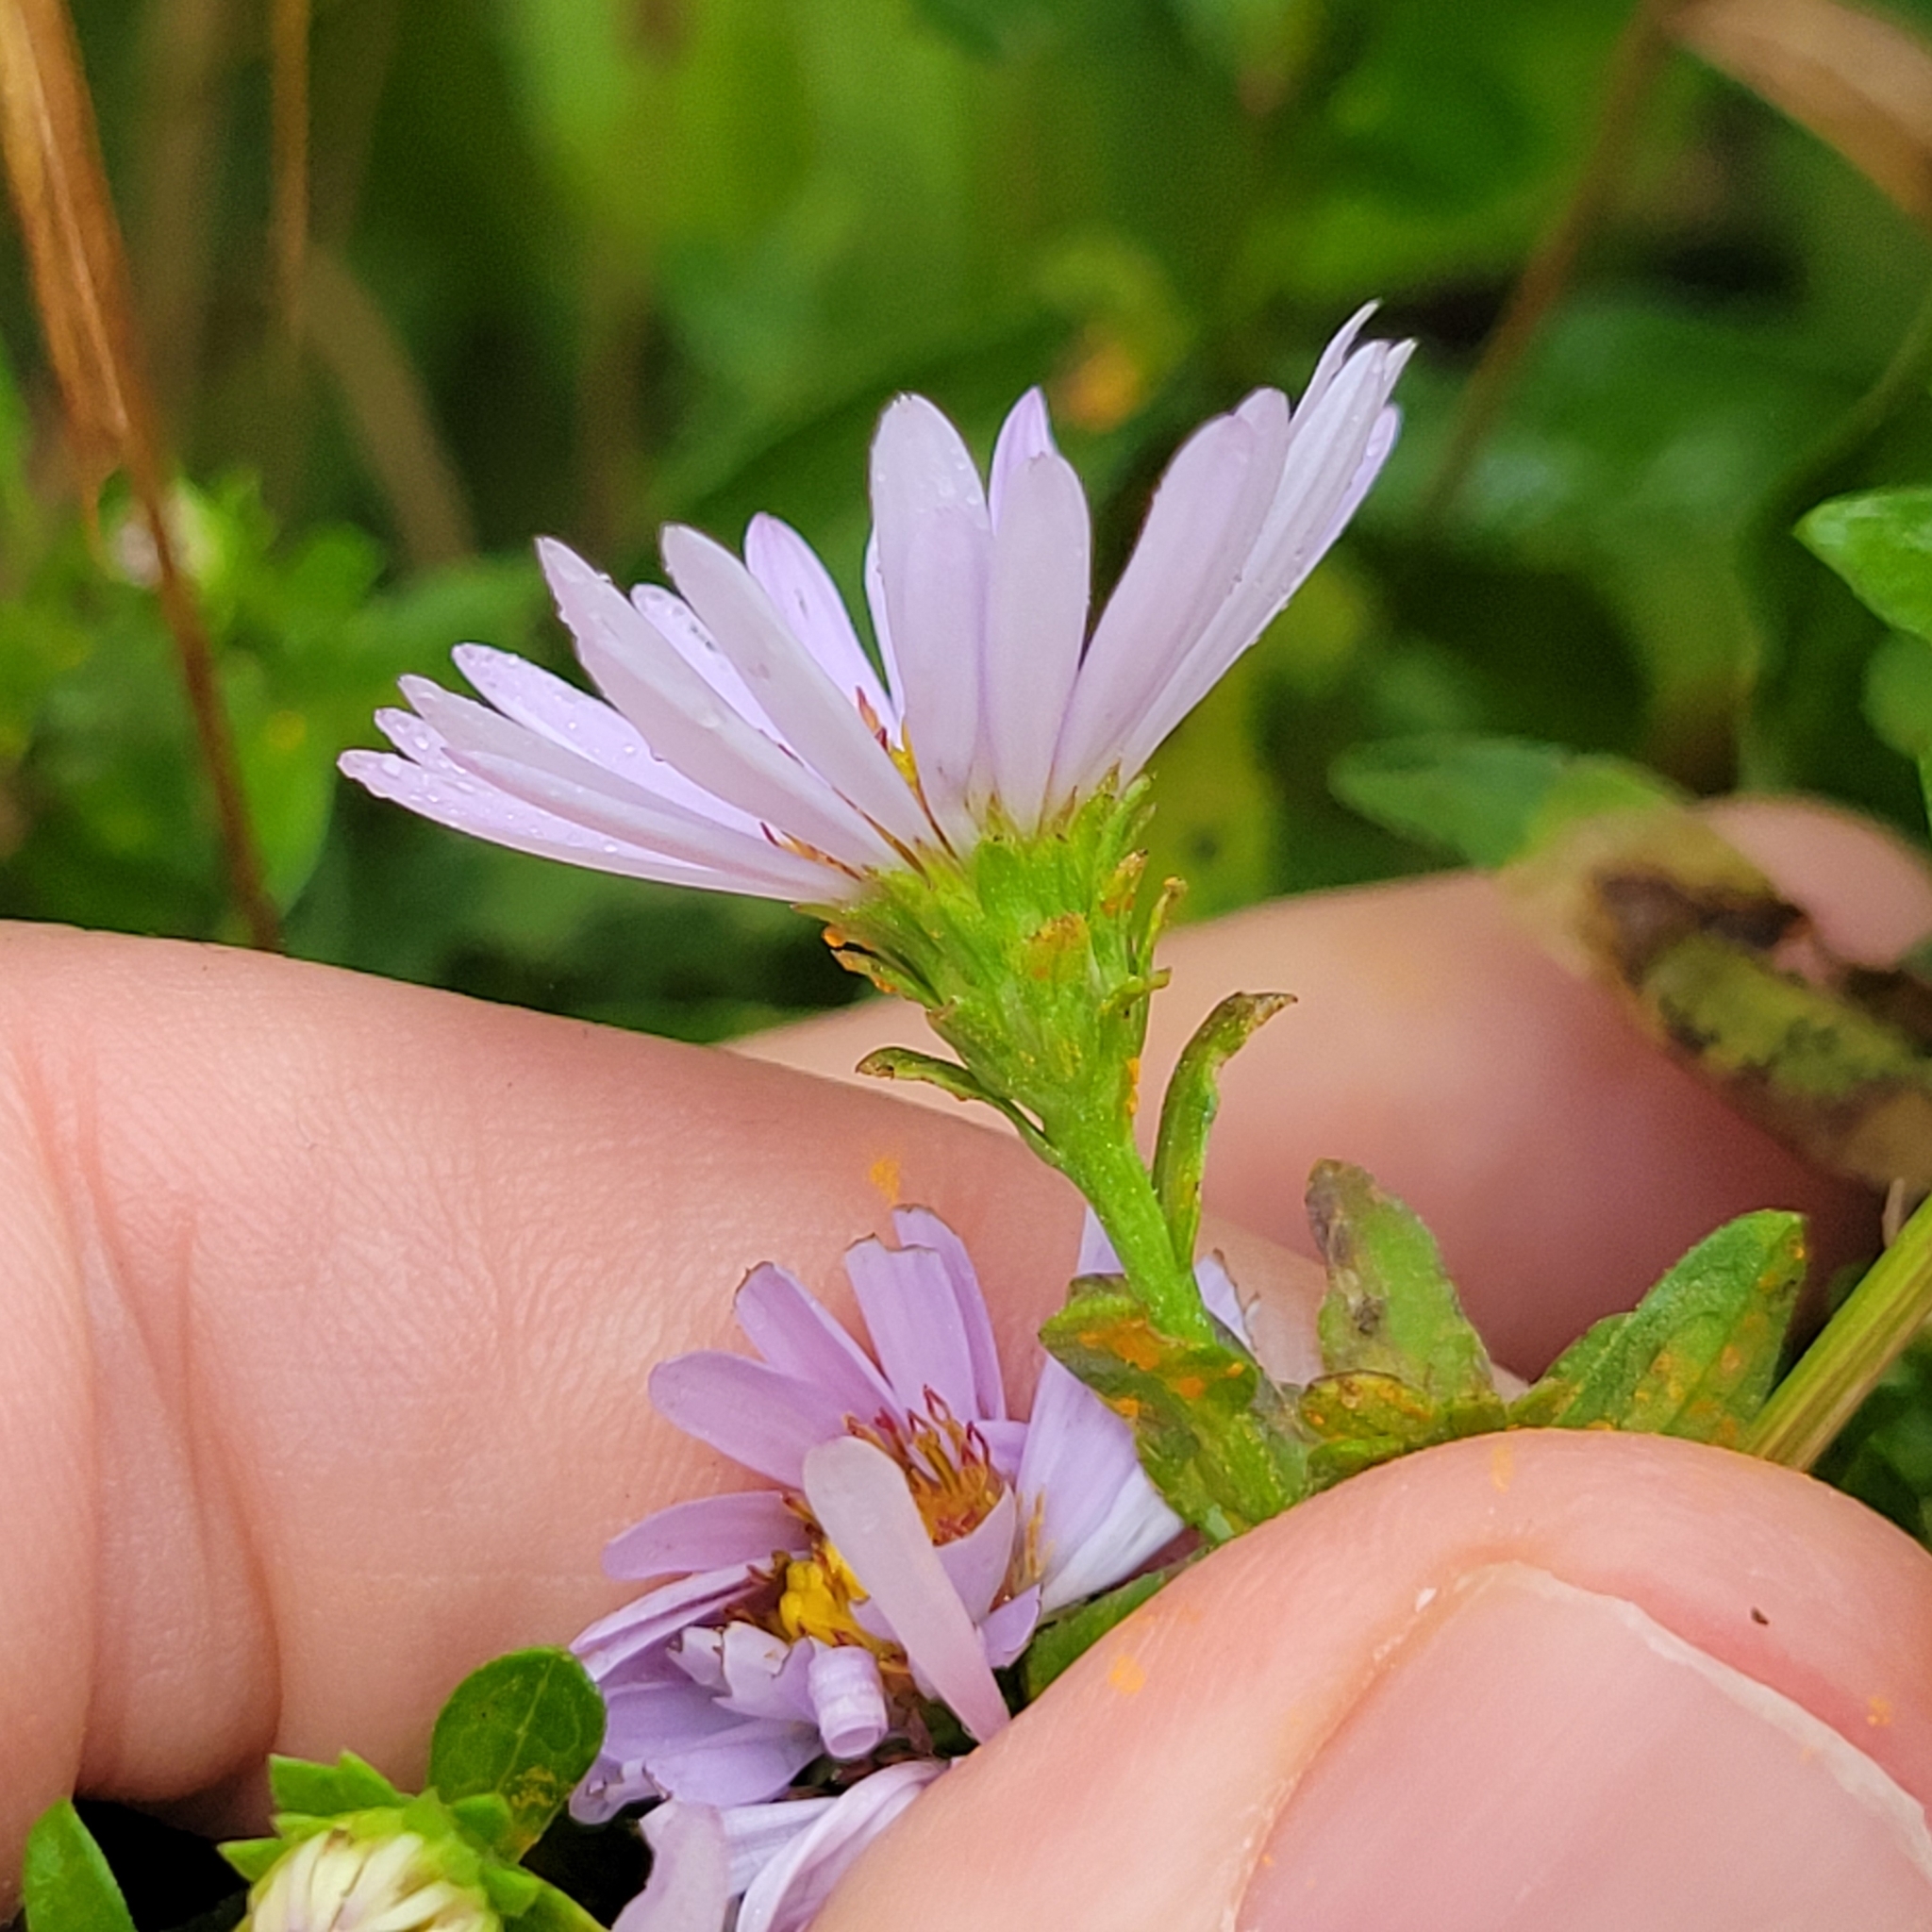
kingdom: Plantae
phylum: Tracheophyta
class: Magnoliopsida
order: Asterales
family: Asteraceae
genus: Symphyotrichum
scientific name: Symphyotrichum novi-belgii
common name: Michaelmas daisy
